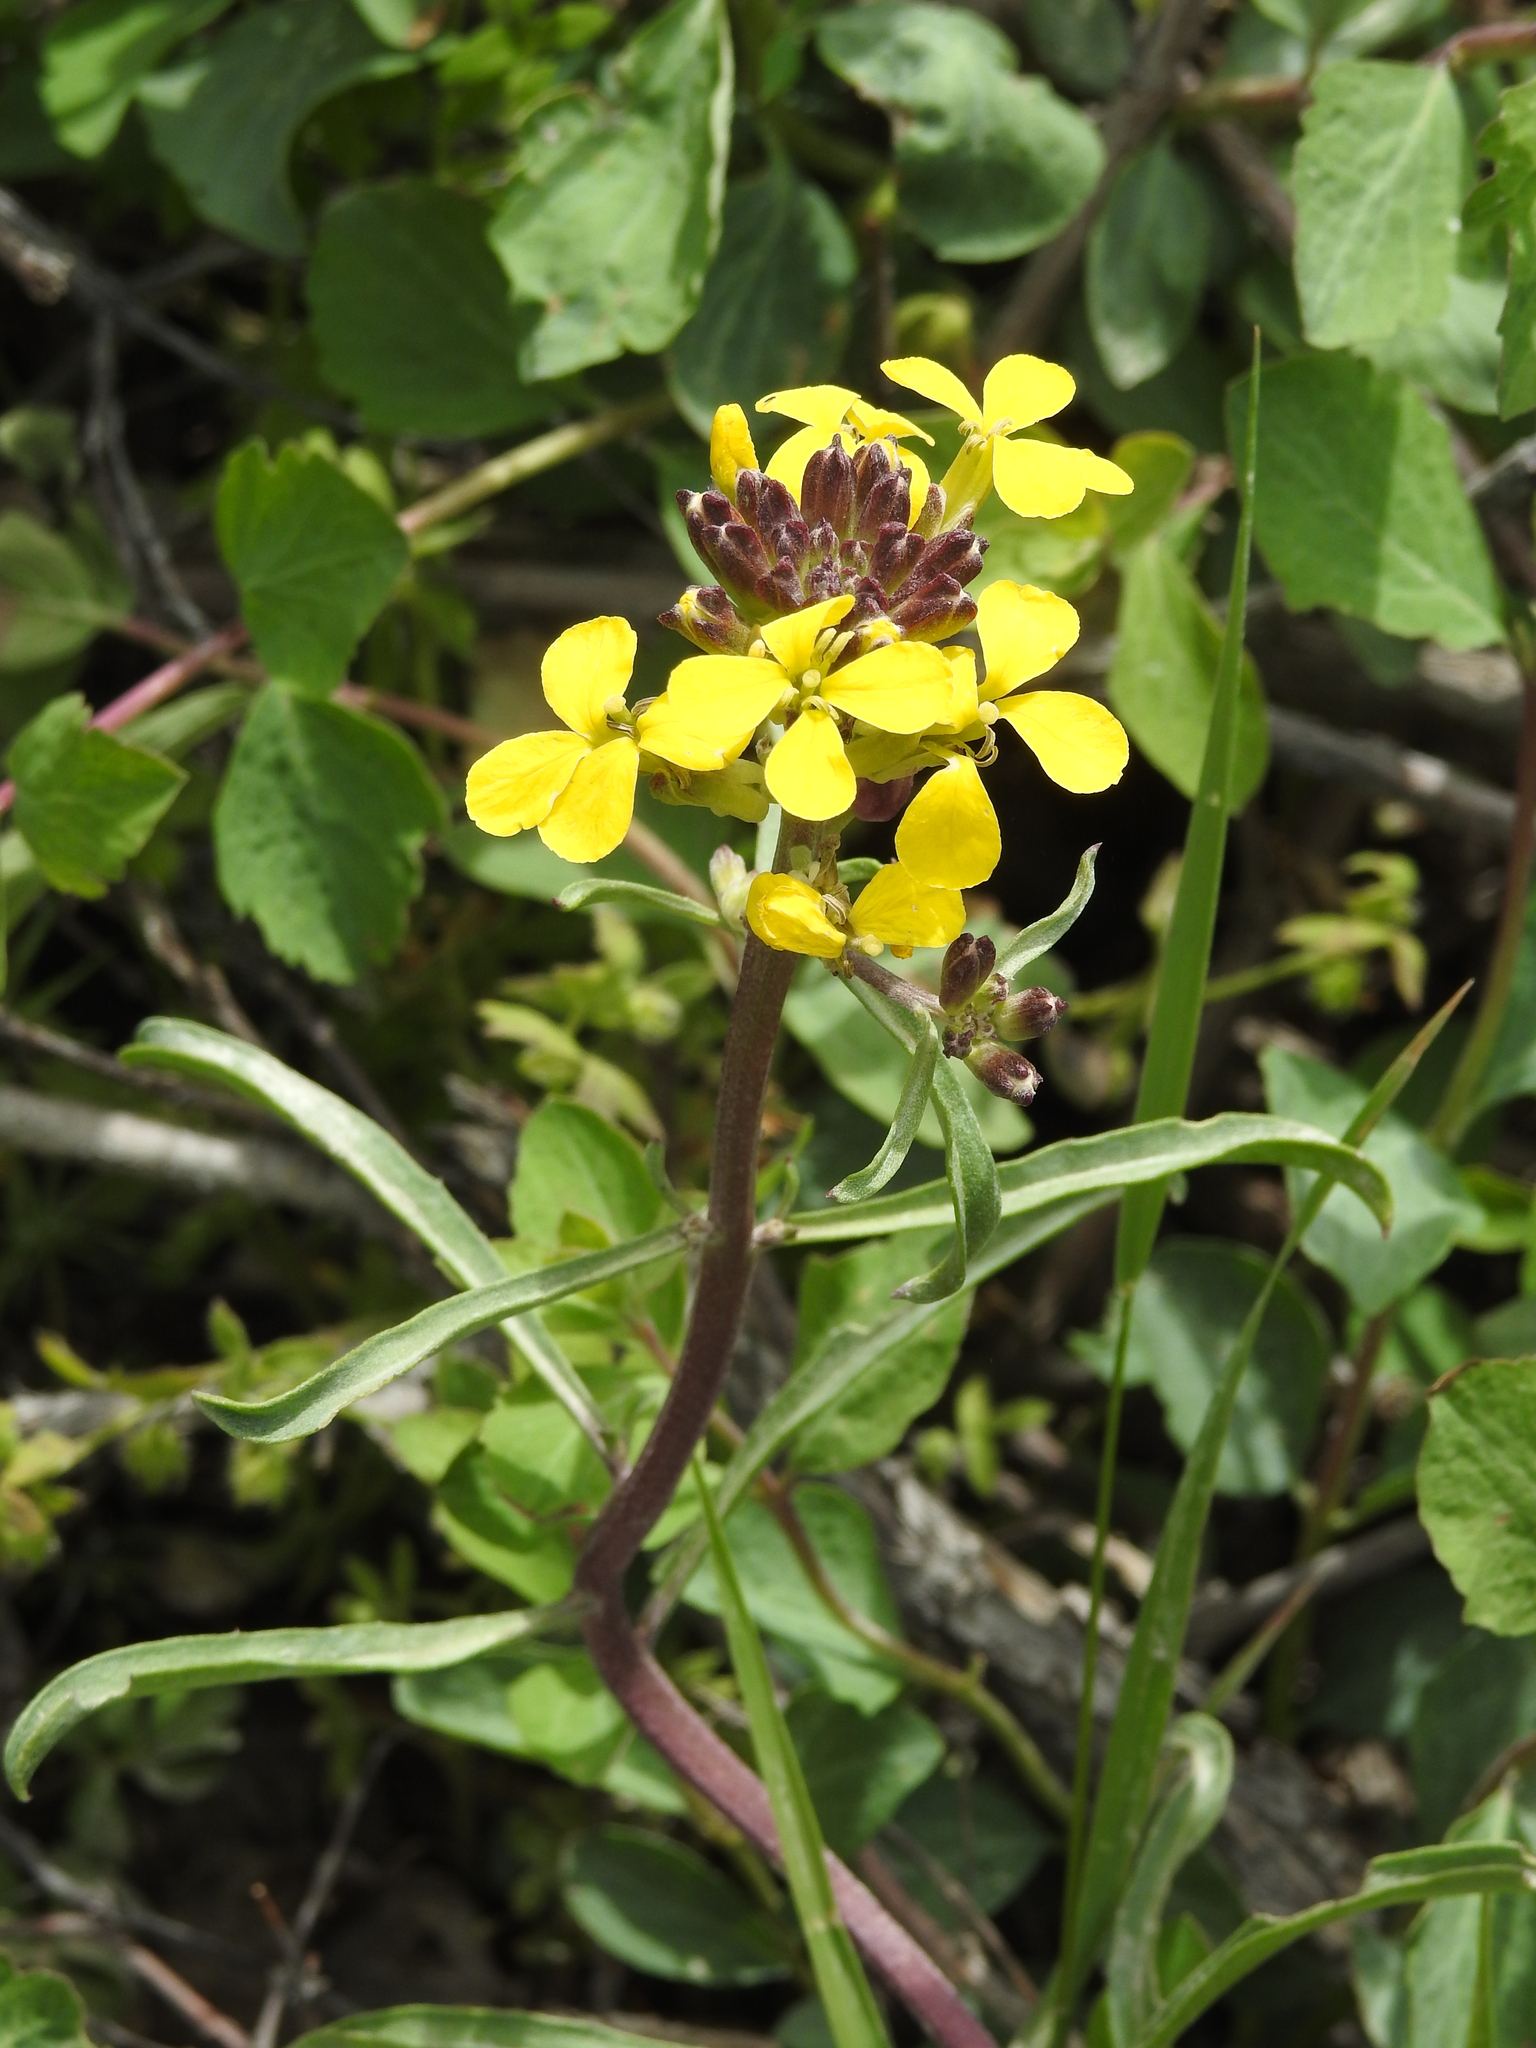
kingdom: Plantae
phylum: Tracheophyta
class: Magnoliopsida
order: Brassicales
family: Brassicaceae
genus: Erysimum
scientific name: Erysimum capitatum
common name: Western wallflower
